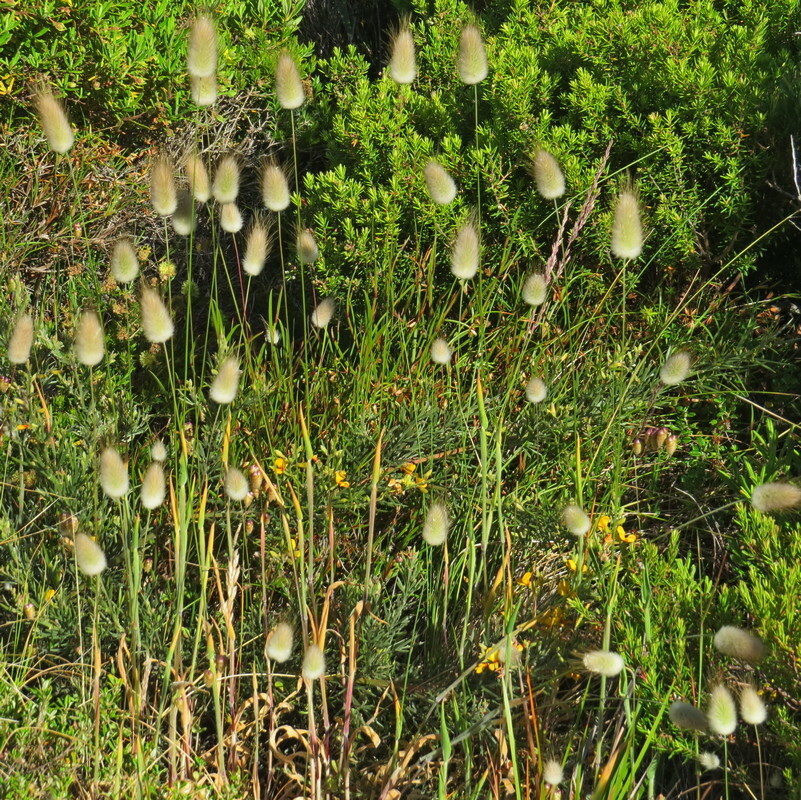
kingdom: Plantae
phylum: Tracheophyta
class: Liliopsida
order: Poales
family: Poaceae
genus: Lagurus
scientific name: Lagurus ovatus
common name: Hare's-tail
